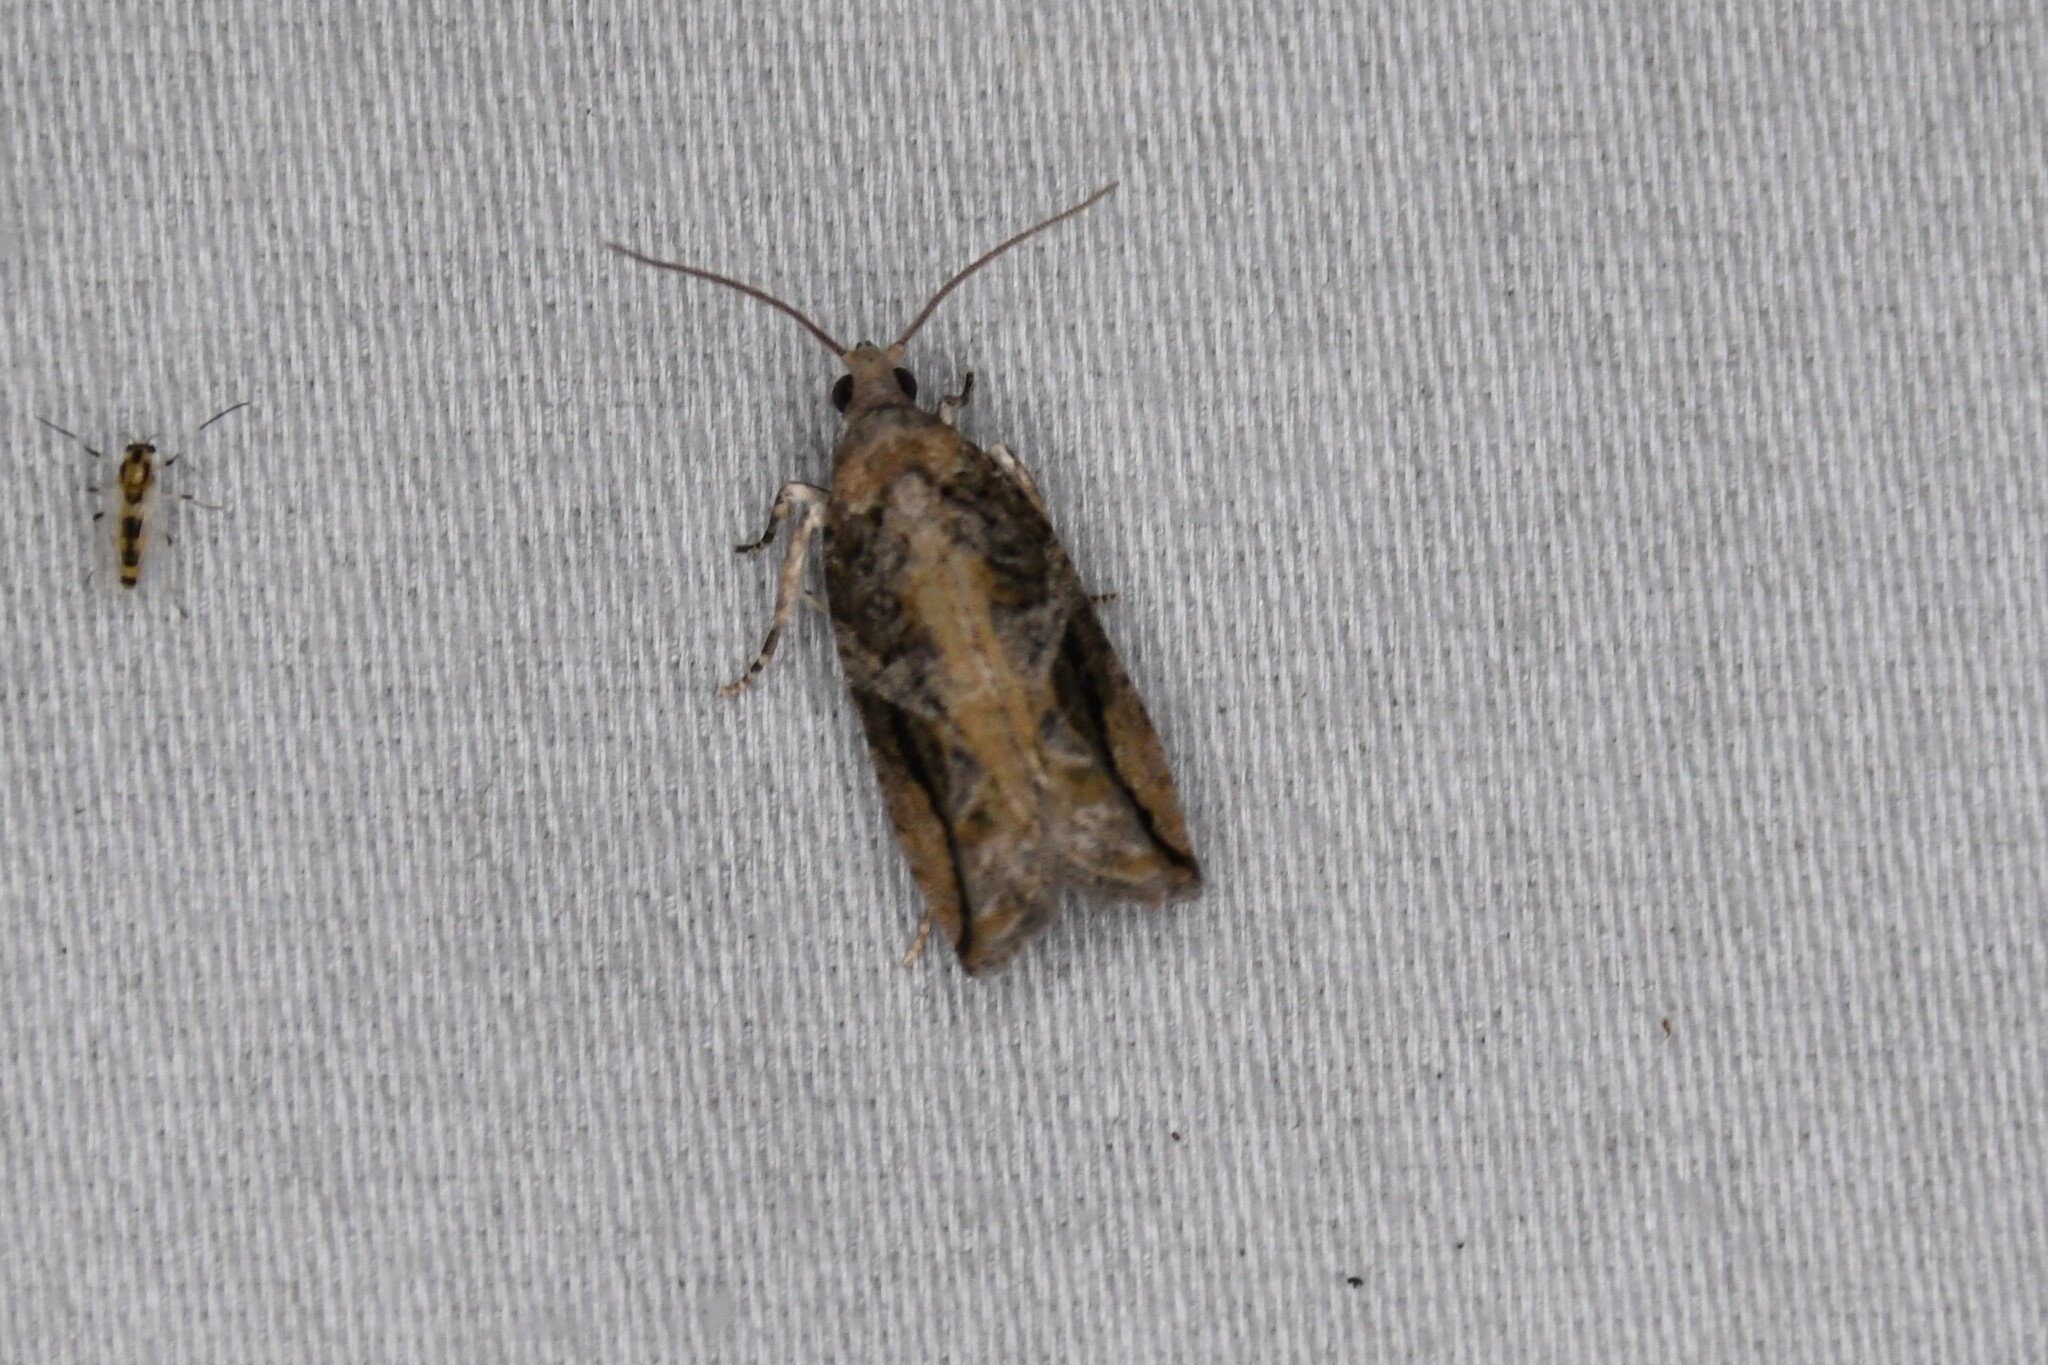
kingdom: Animalia
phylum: Arthropoda
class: Insecta
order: Lepidoptera
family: Tortricidae
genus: Proteoteras
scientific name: Proteoteras crescentana
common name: Black-crescent proteoteras moth
